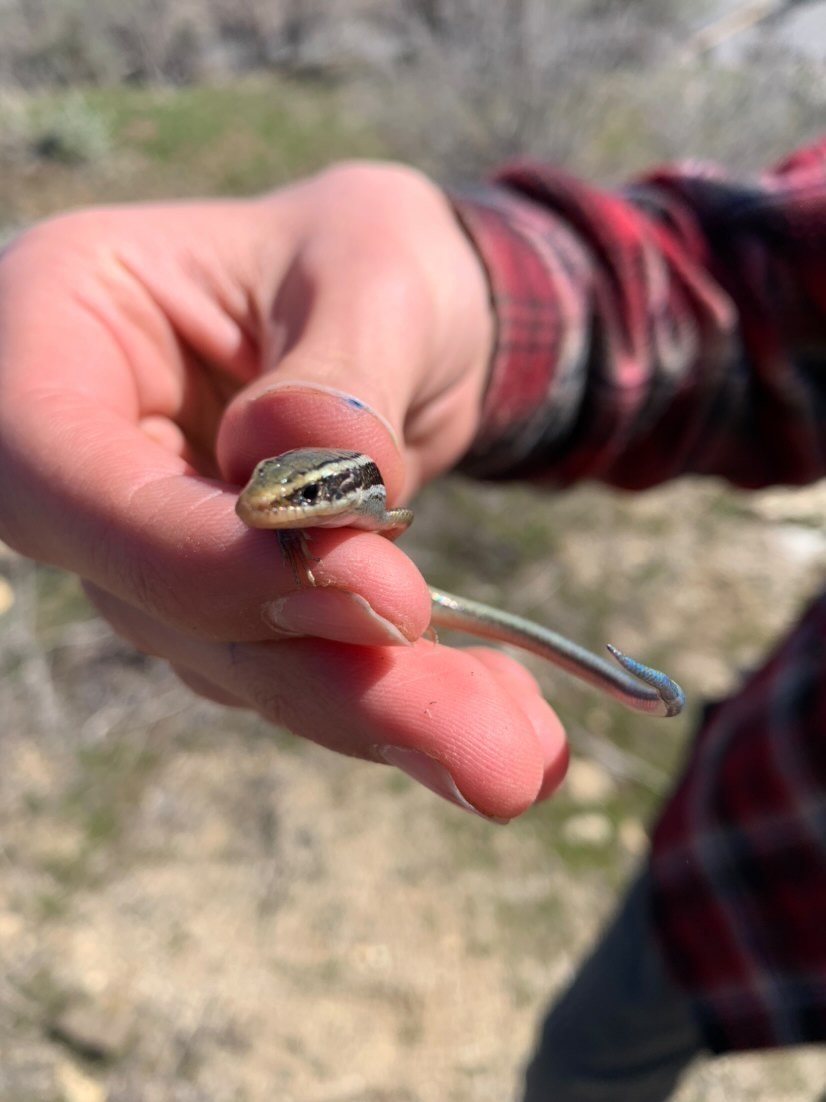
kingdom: Animalia
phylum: Chordata
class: Squamata
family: Scincidae
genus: Plestiodon
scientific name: Plestiodon skiltonianus
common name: Coronado island skink [interparietalis]
